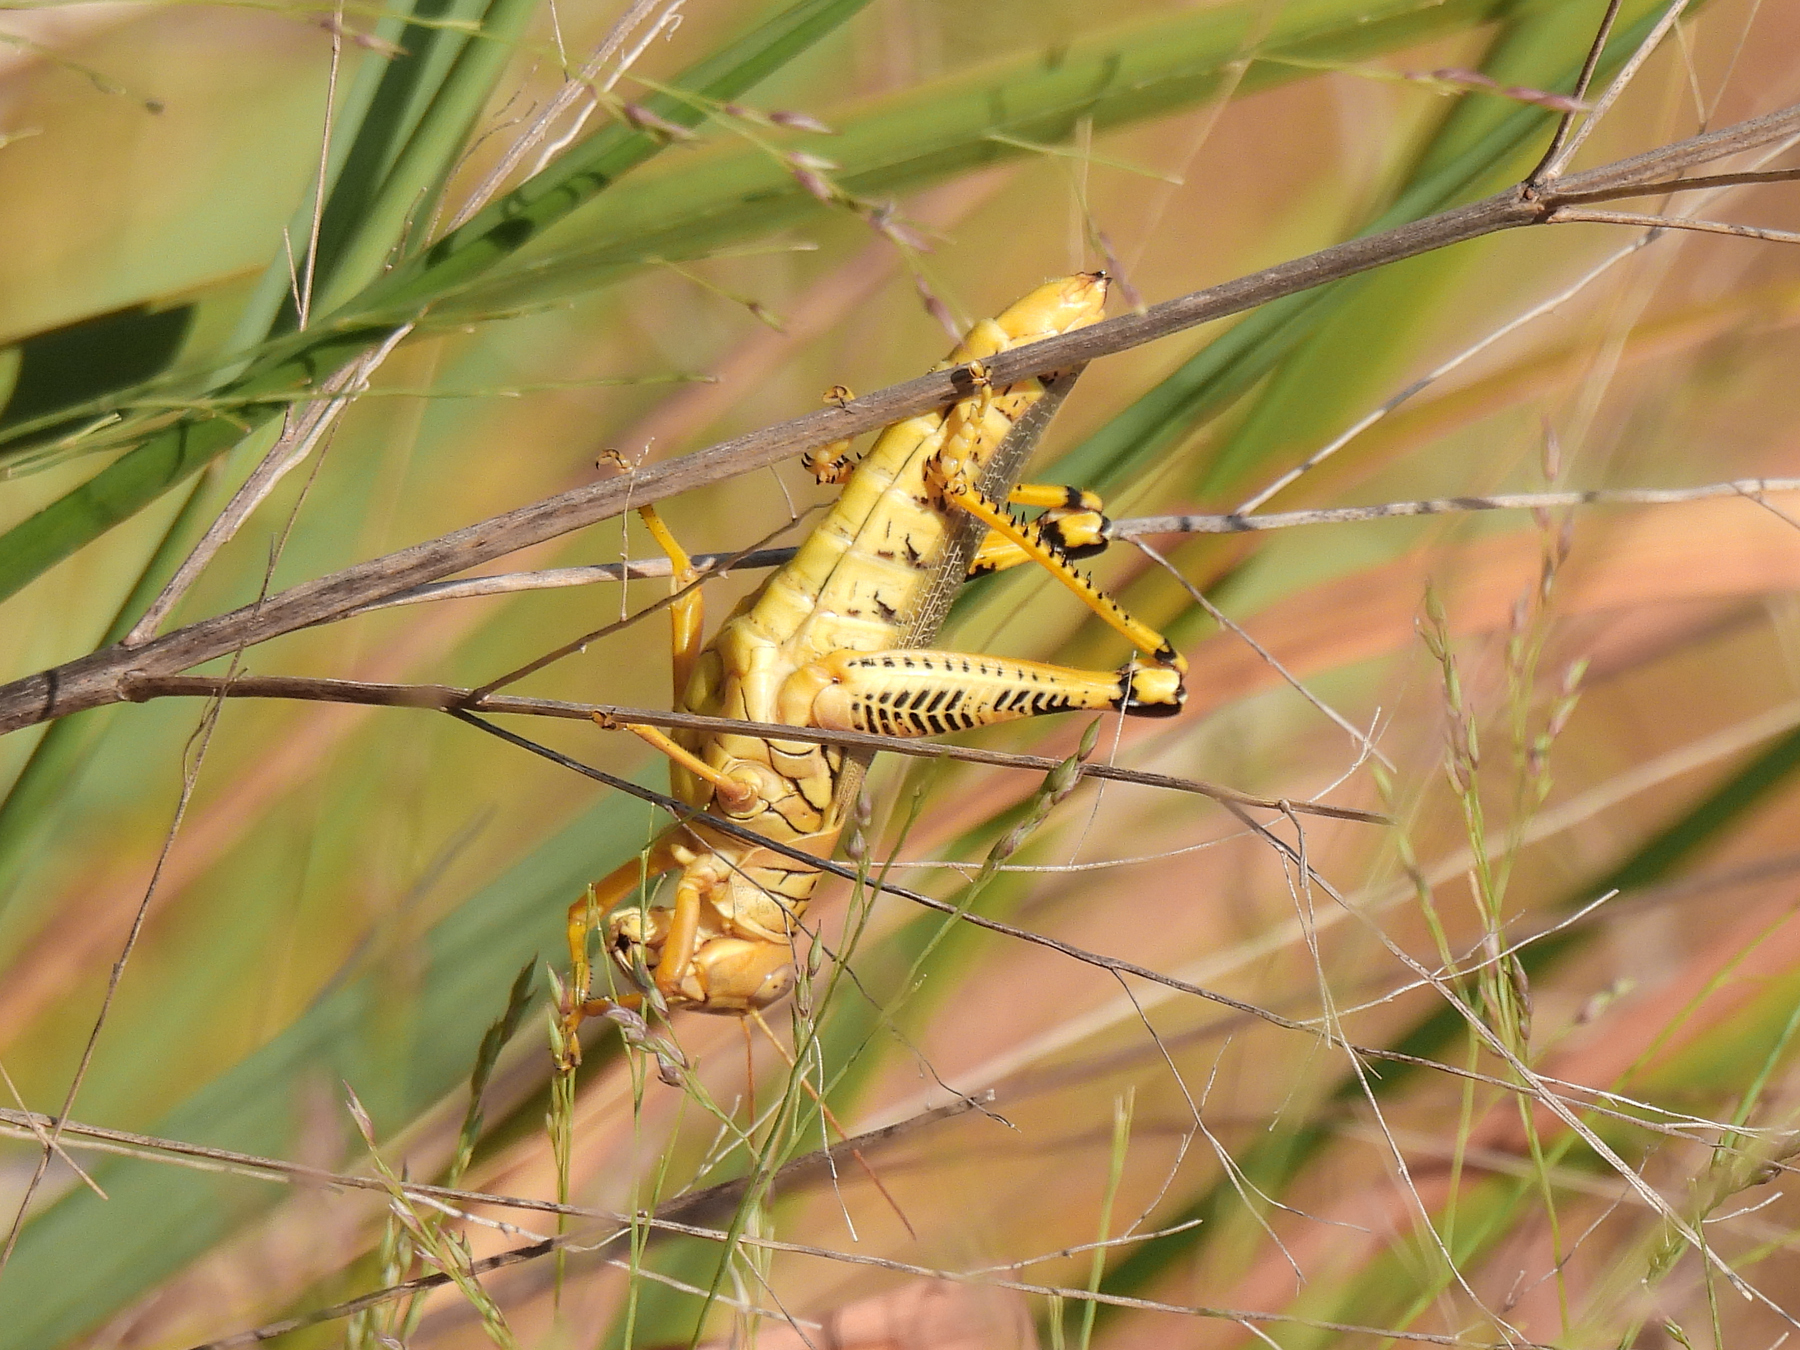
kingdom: Animalia
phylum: Arthropoda
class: Insecta
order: Orthoptera
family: Acrididae
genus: Melanoplus
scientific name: Melanoplus differentialis
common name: Differential grasshopper
